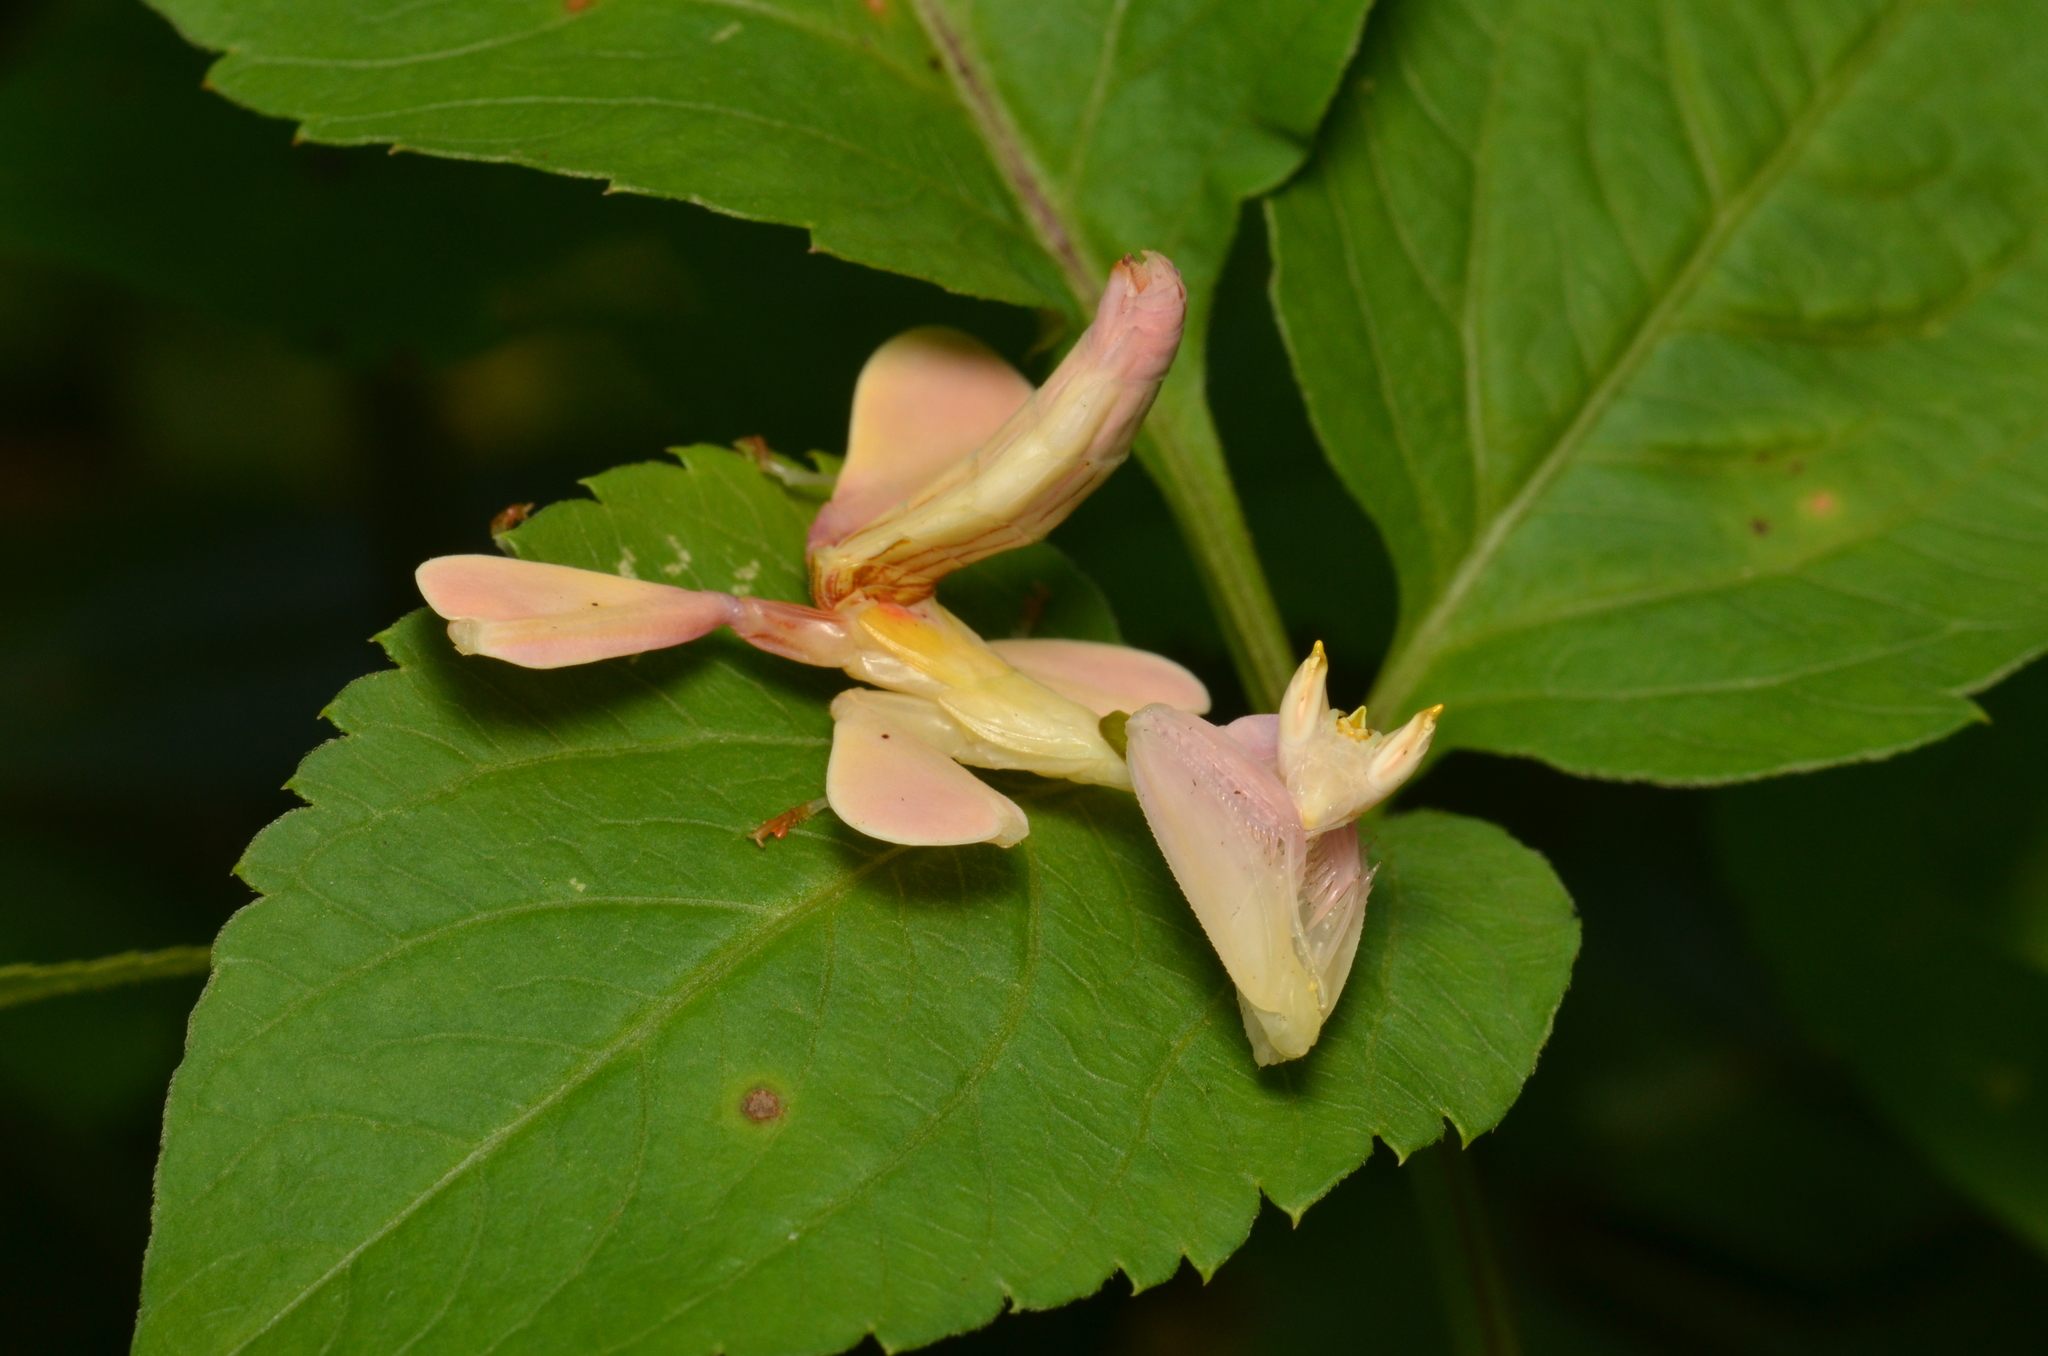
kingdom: Animalia
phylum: Arthropoda
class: Insecta
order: Mantodea
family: Hymenopodidae
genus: Hymenopus
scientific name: Hymenopus coronatus
